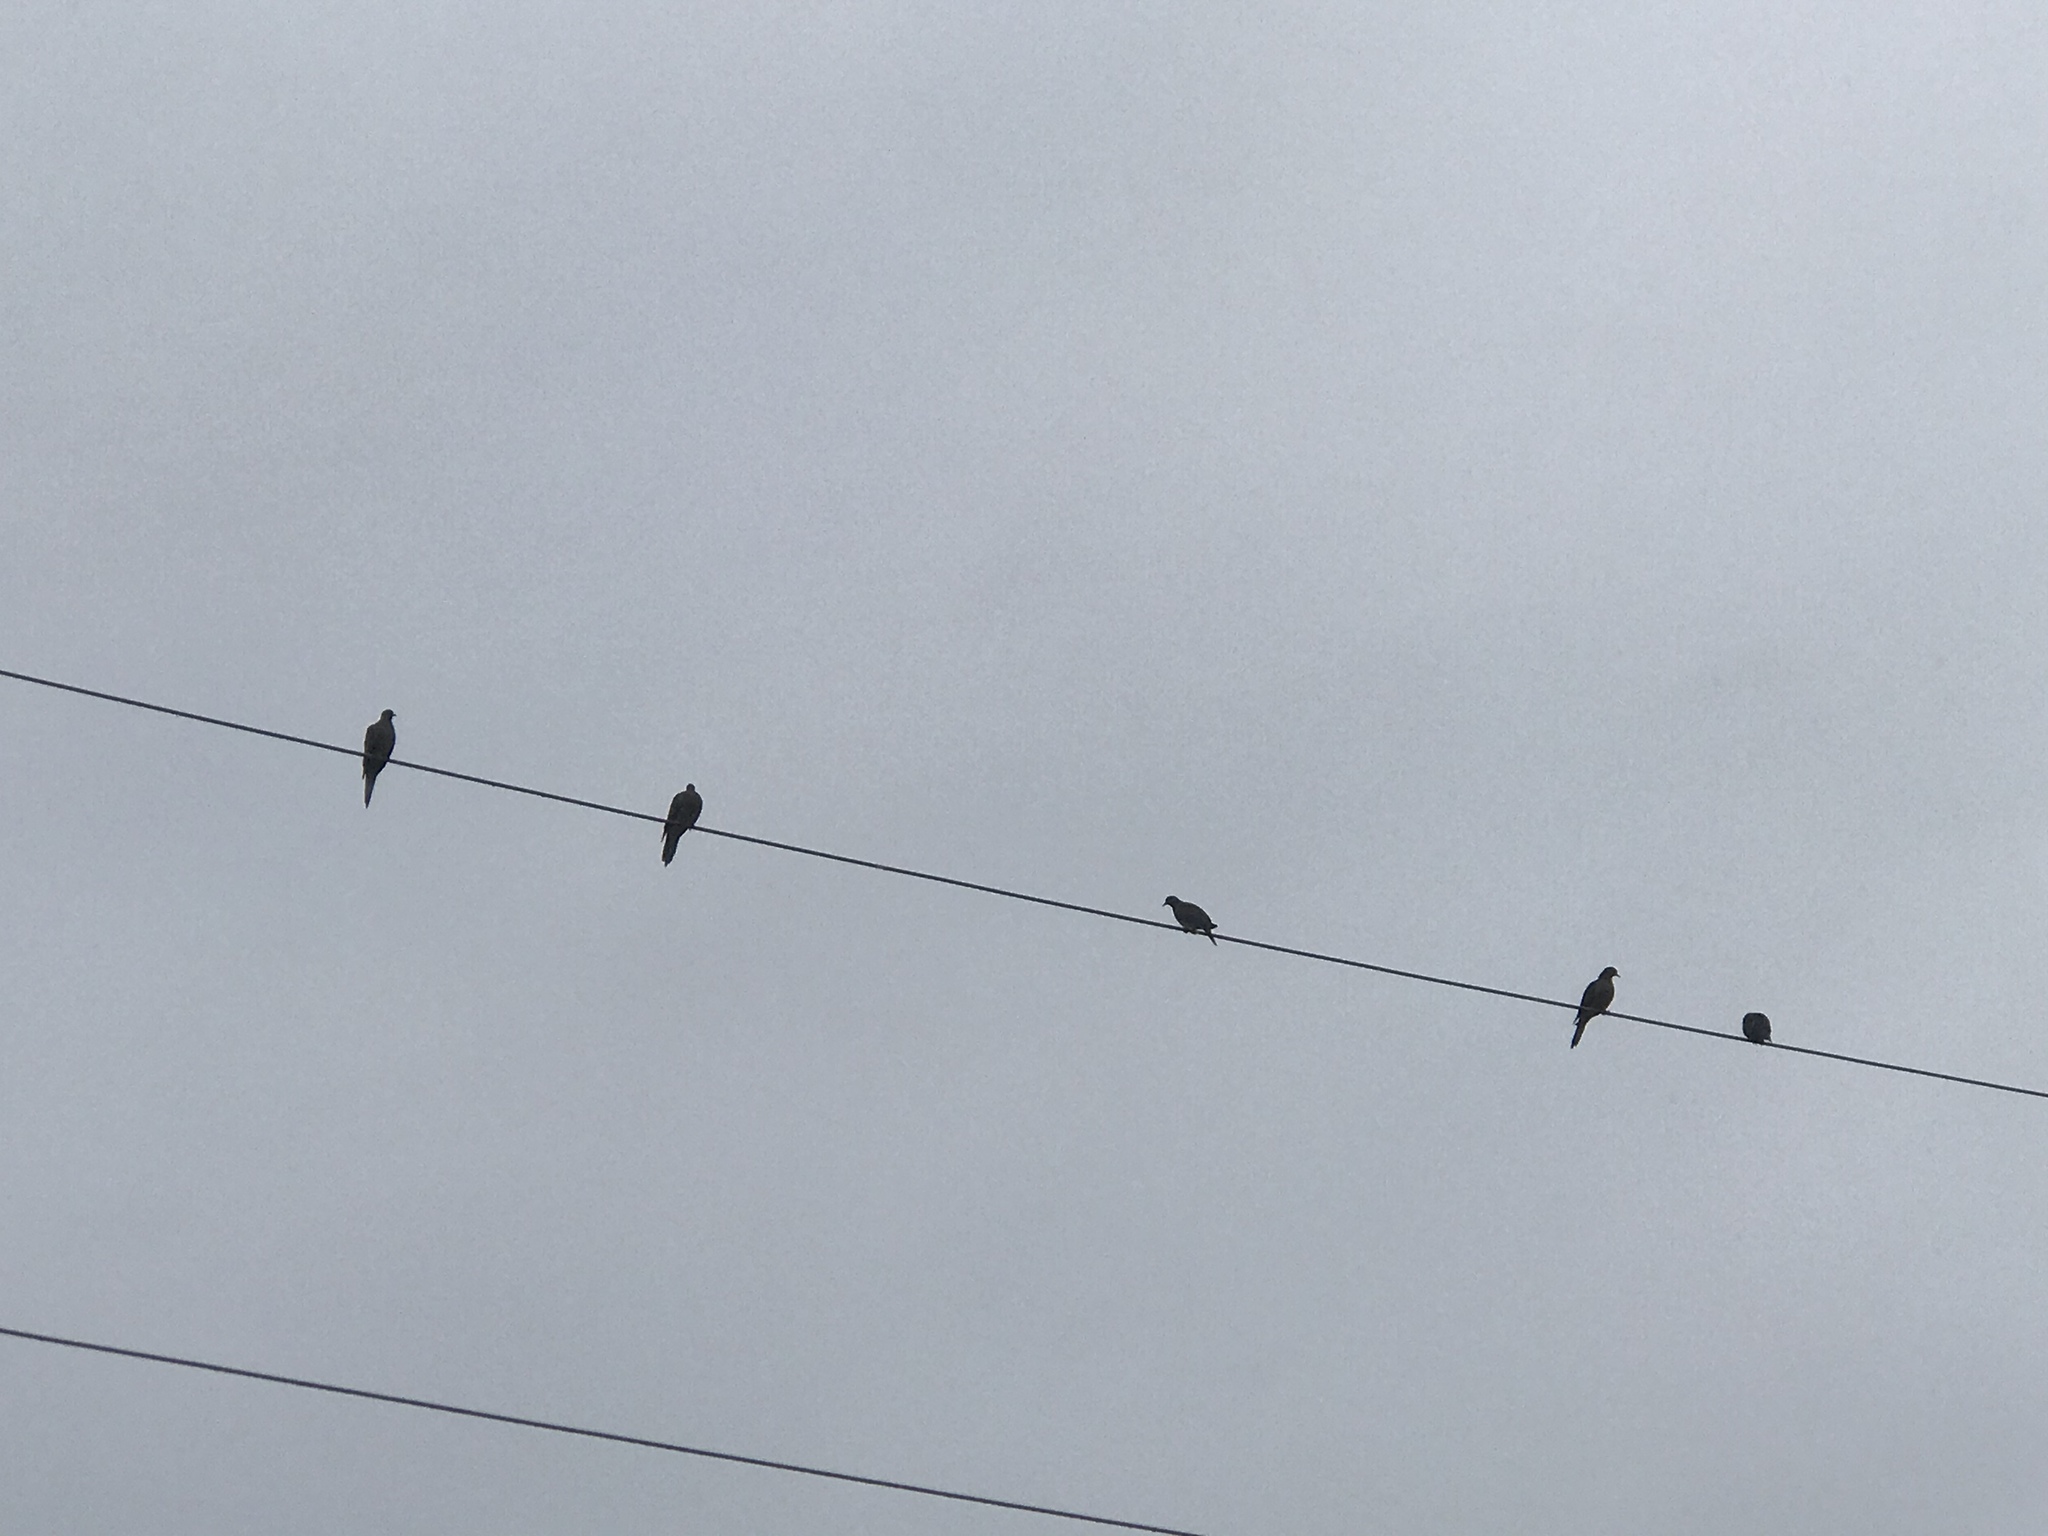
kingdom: Animalia
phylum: Chordata
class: Aves
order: Columbiformes
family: Columbidae
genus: Zenaida
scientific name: Zenaida macroura
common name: Mourning dove
